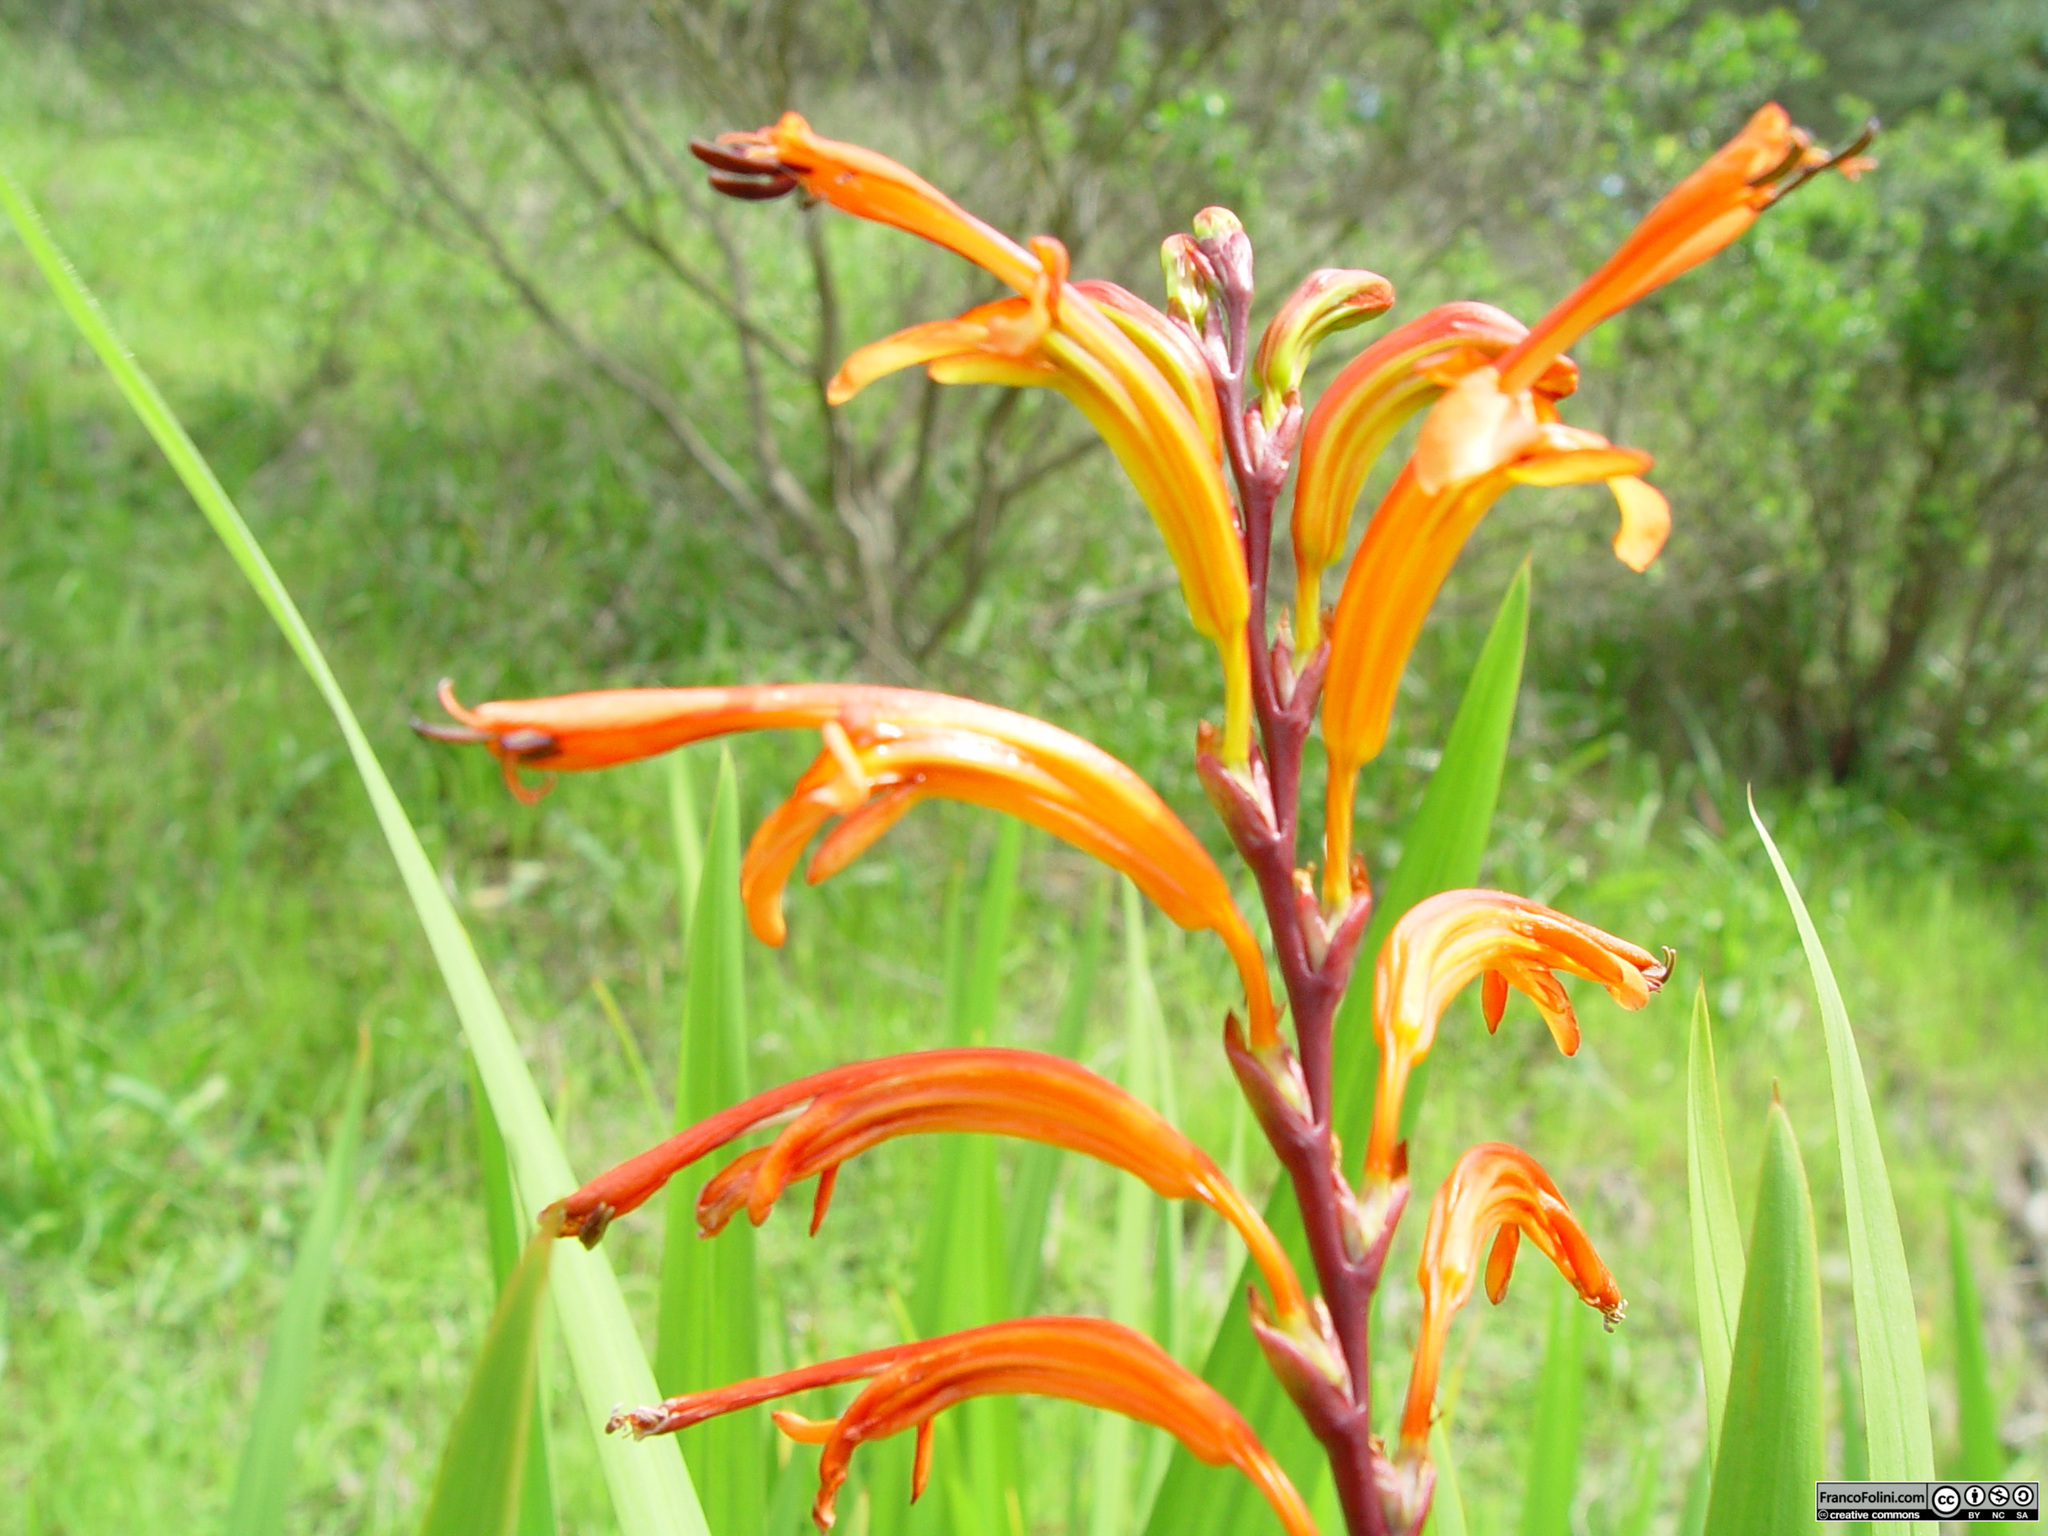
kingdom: Plantae
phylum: Tracheophyta
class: Liliopsida
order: Asparagales
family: Iridaceae
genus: Chasmanthe
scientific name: Chasmanthe floribunda
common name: African cornflag
